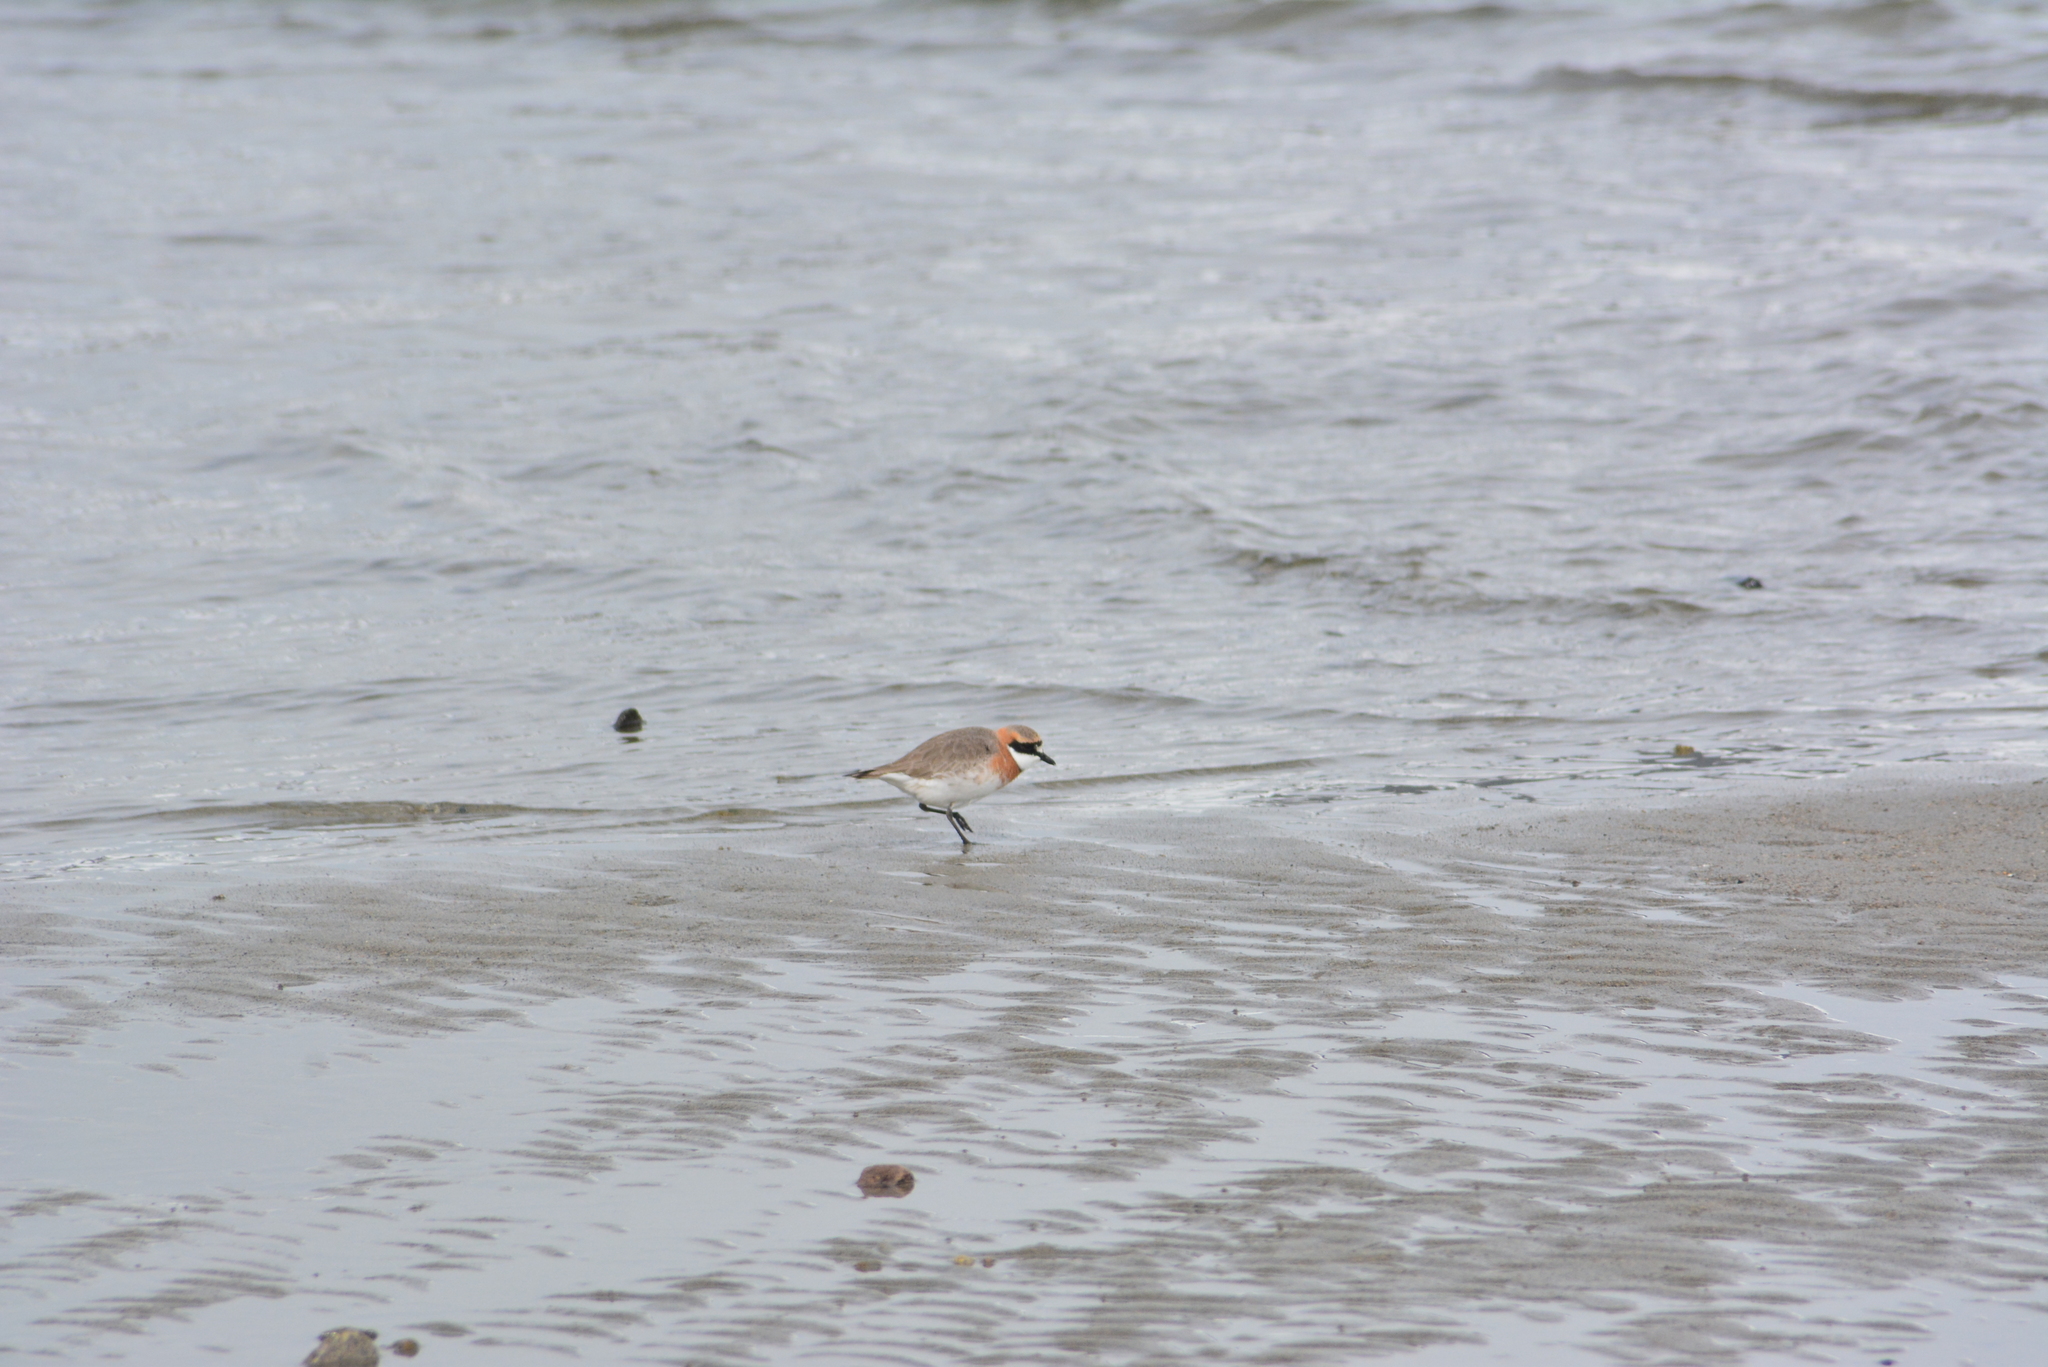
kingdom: Animalia
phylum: Chordata
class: Aves
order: Charadriiformes
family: Charadriidae
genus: Anarhynchus
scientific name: Anarhynchus
